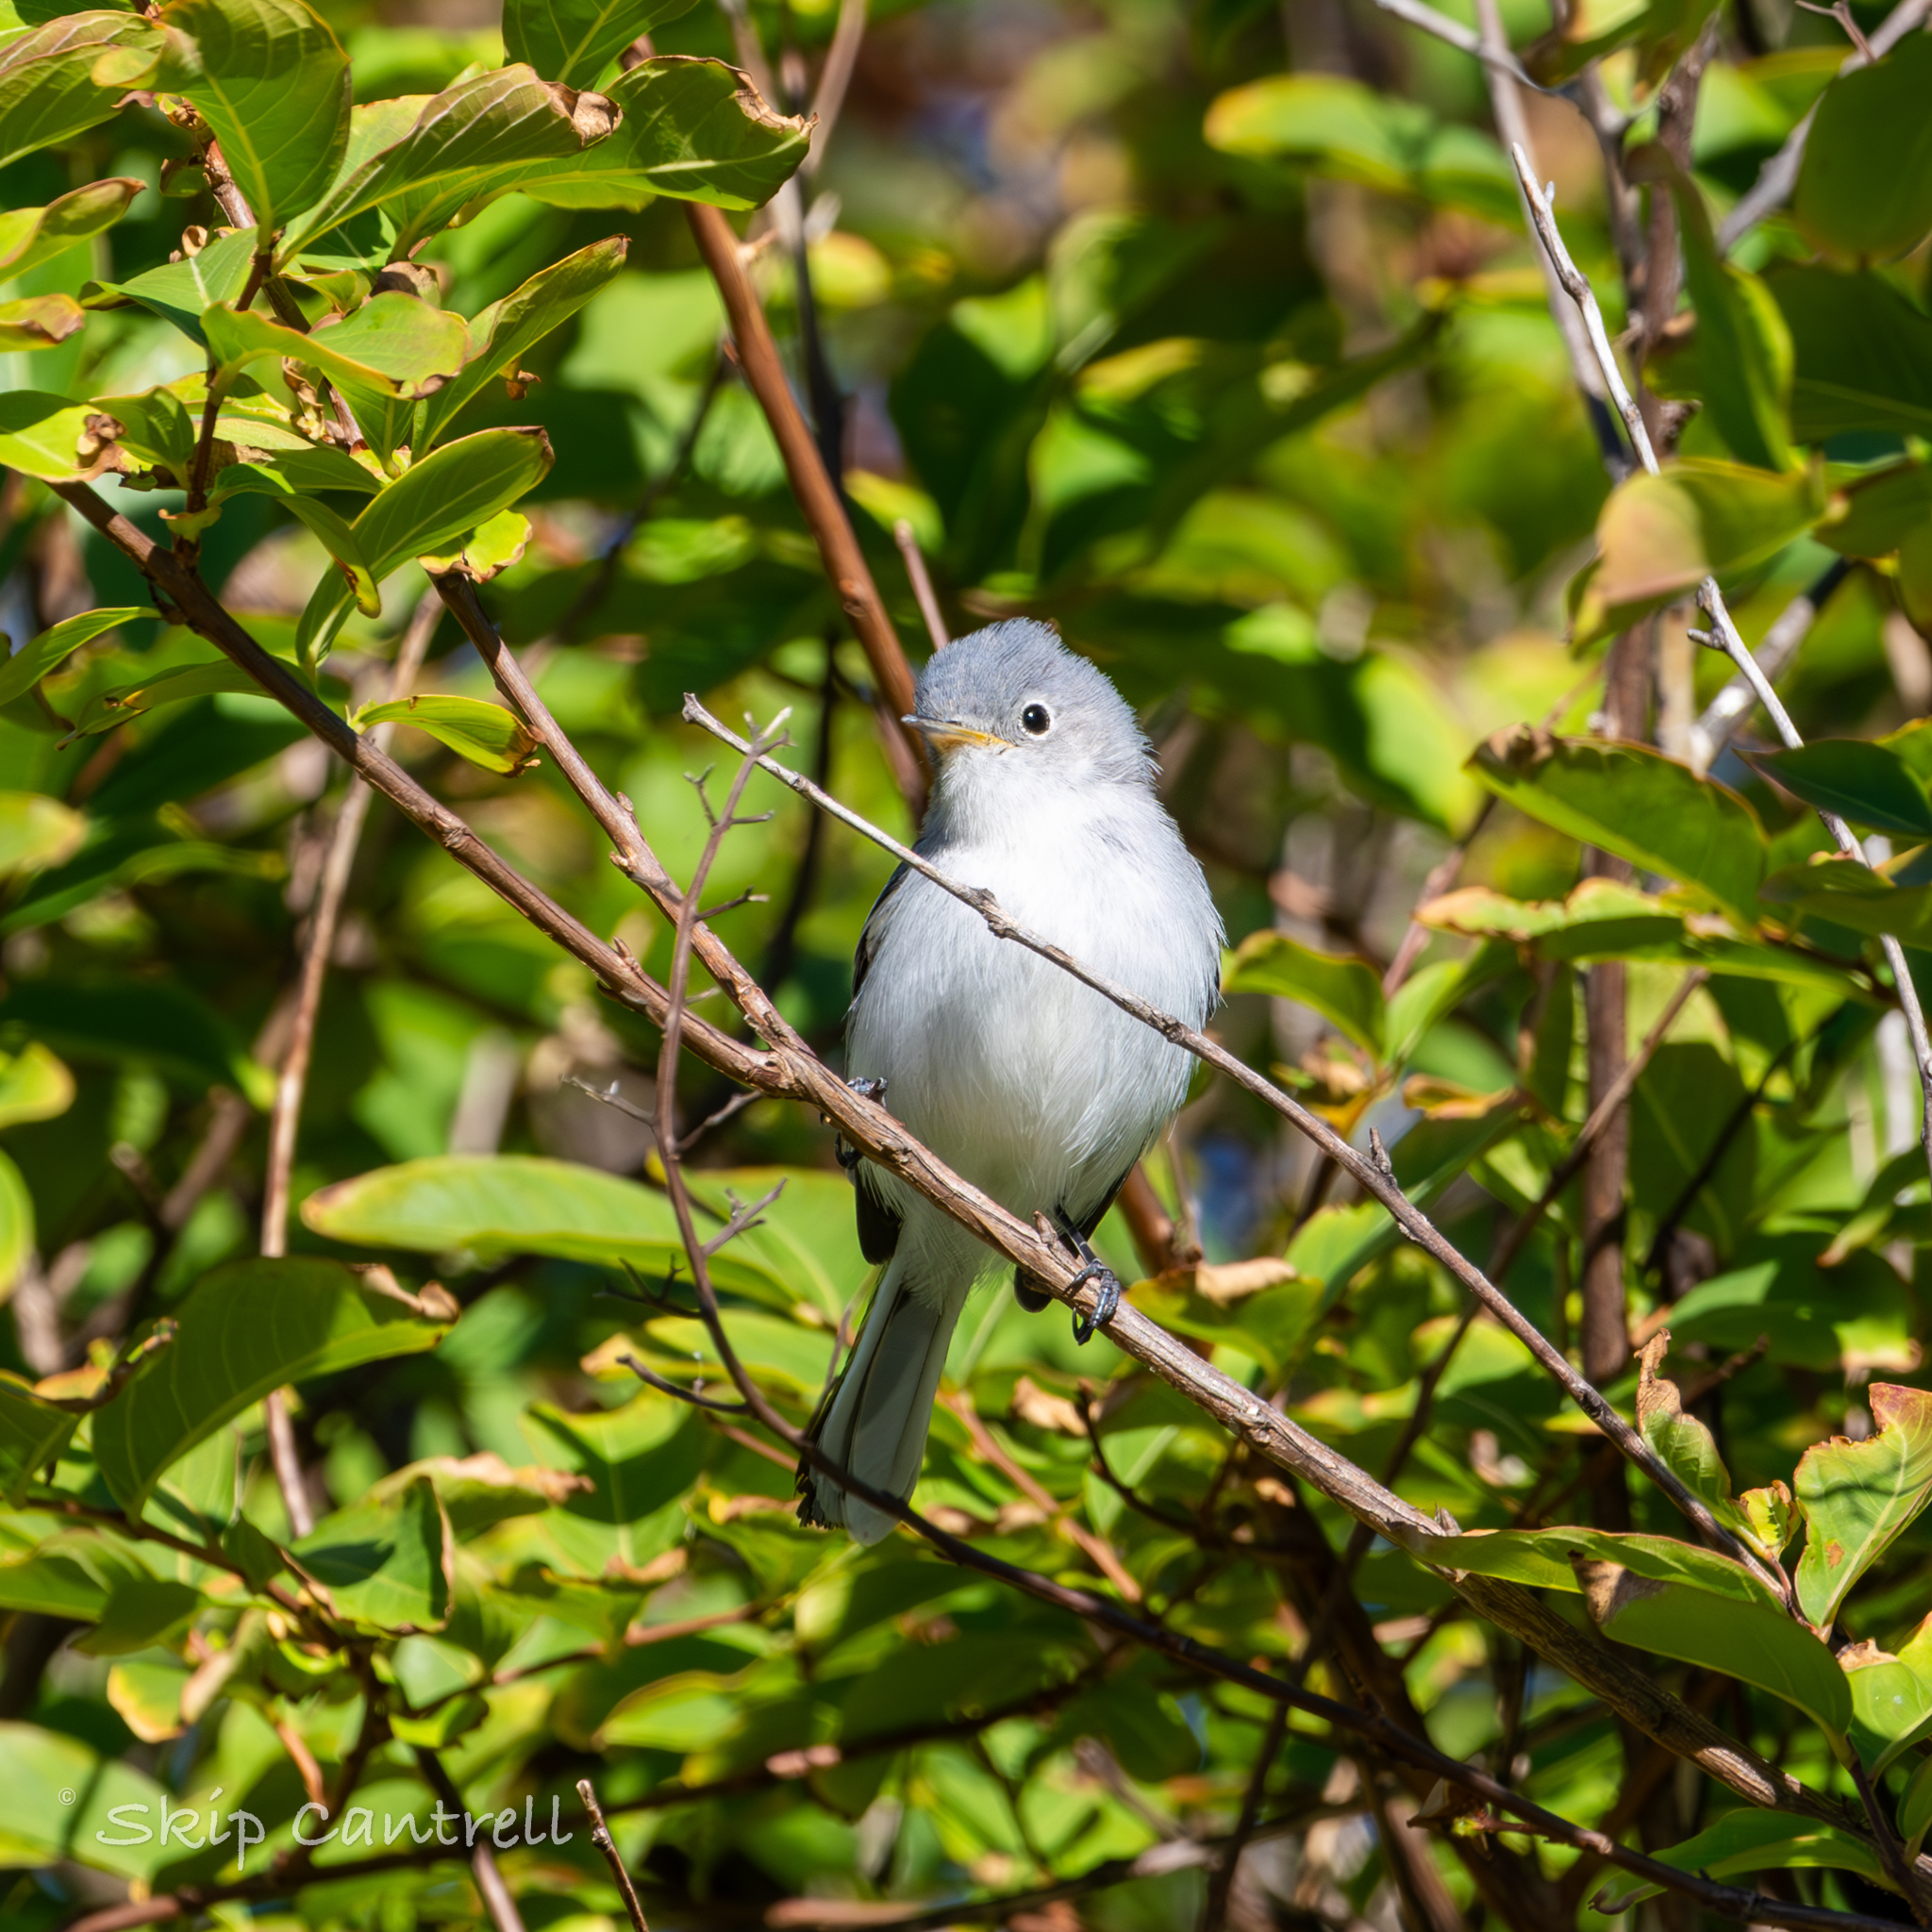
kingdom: Animalia
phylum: Chordata
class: Aves
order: Passeriformes
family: Polioptilidae
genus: Polioptila
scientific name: Polioptila caerulea
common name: Blue-gray gnatcatcher
